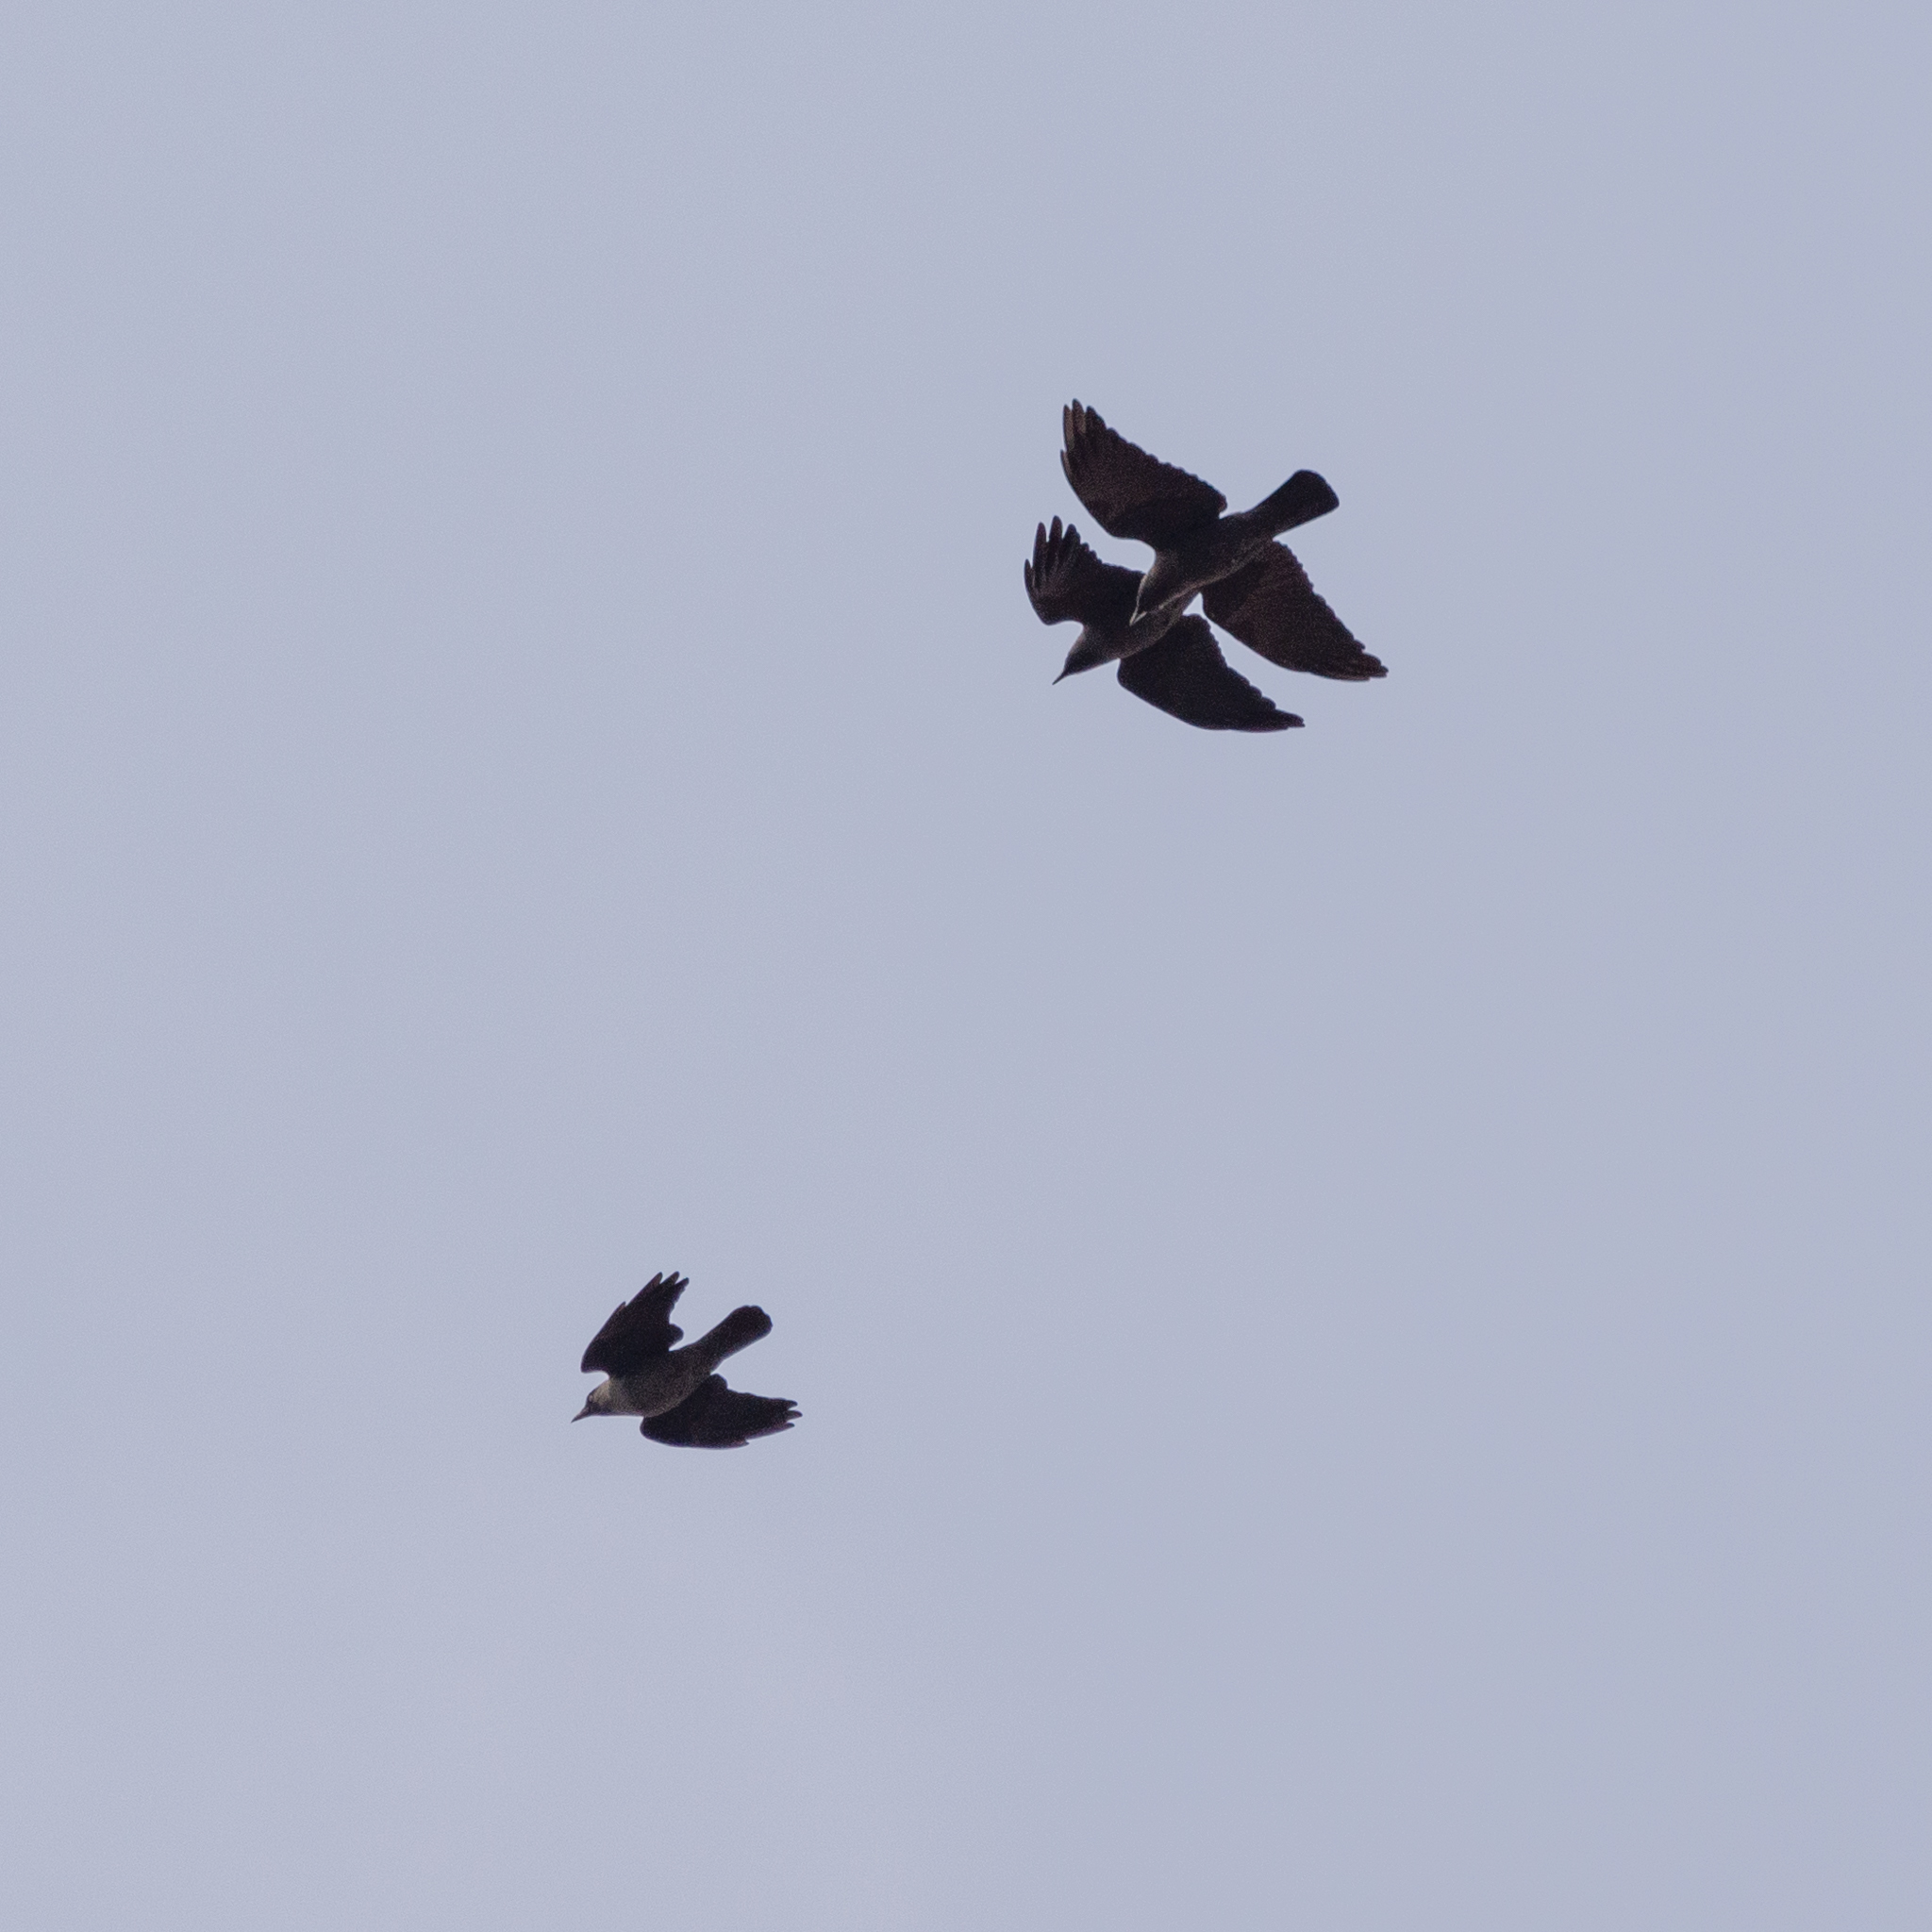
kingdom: Animalia
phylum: Chordata
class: Aves
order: Passeriformes
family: Corvidae
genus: Coloeus
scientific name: Coloeus monedula
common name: Western jackdaw
